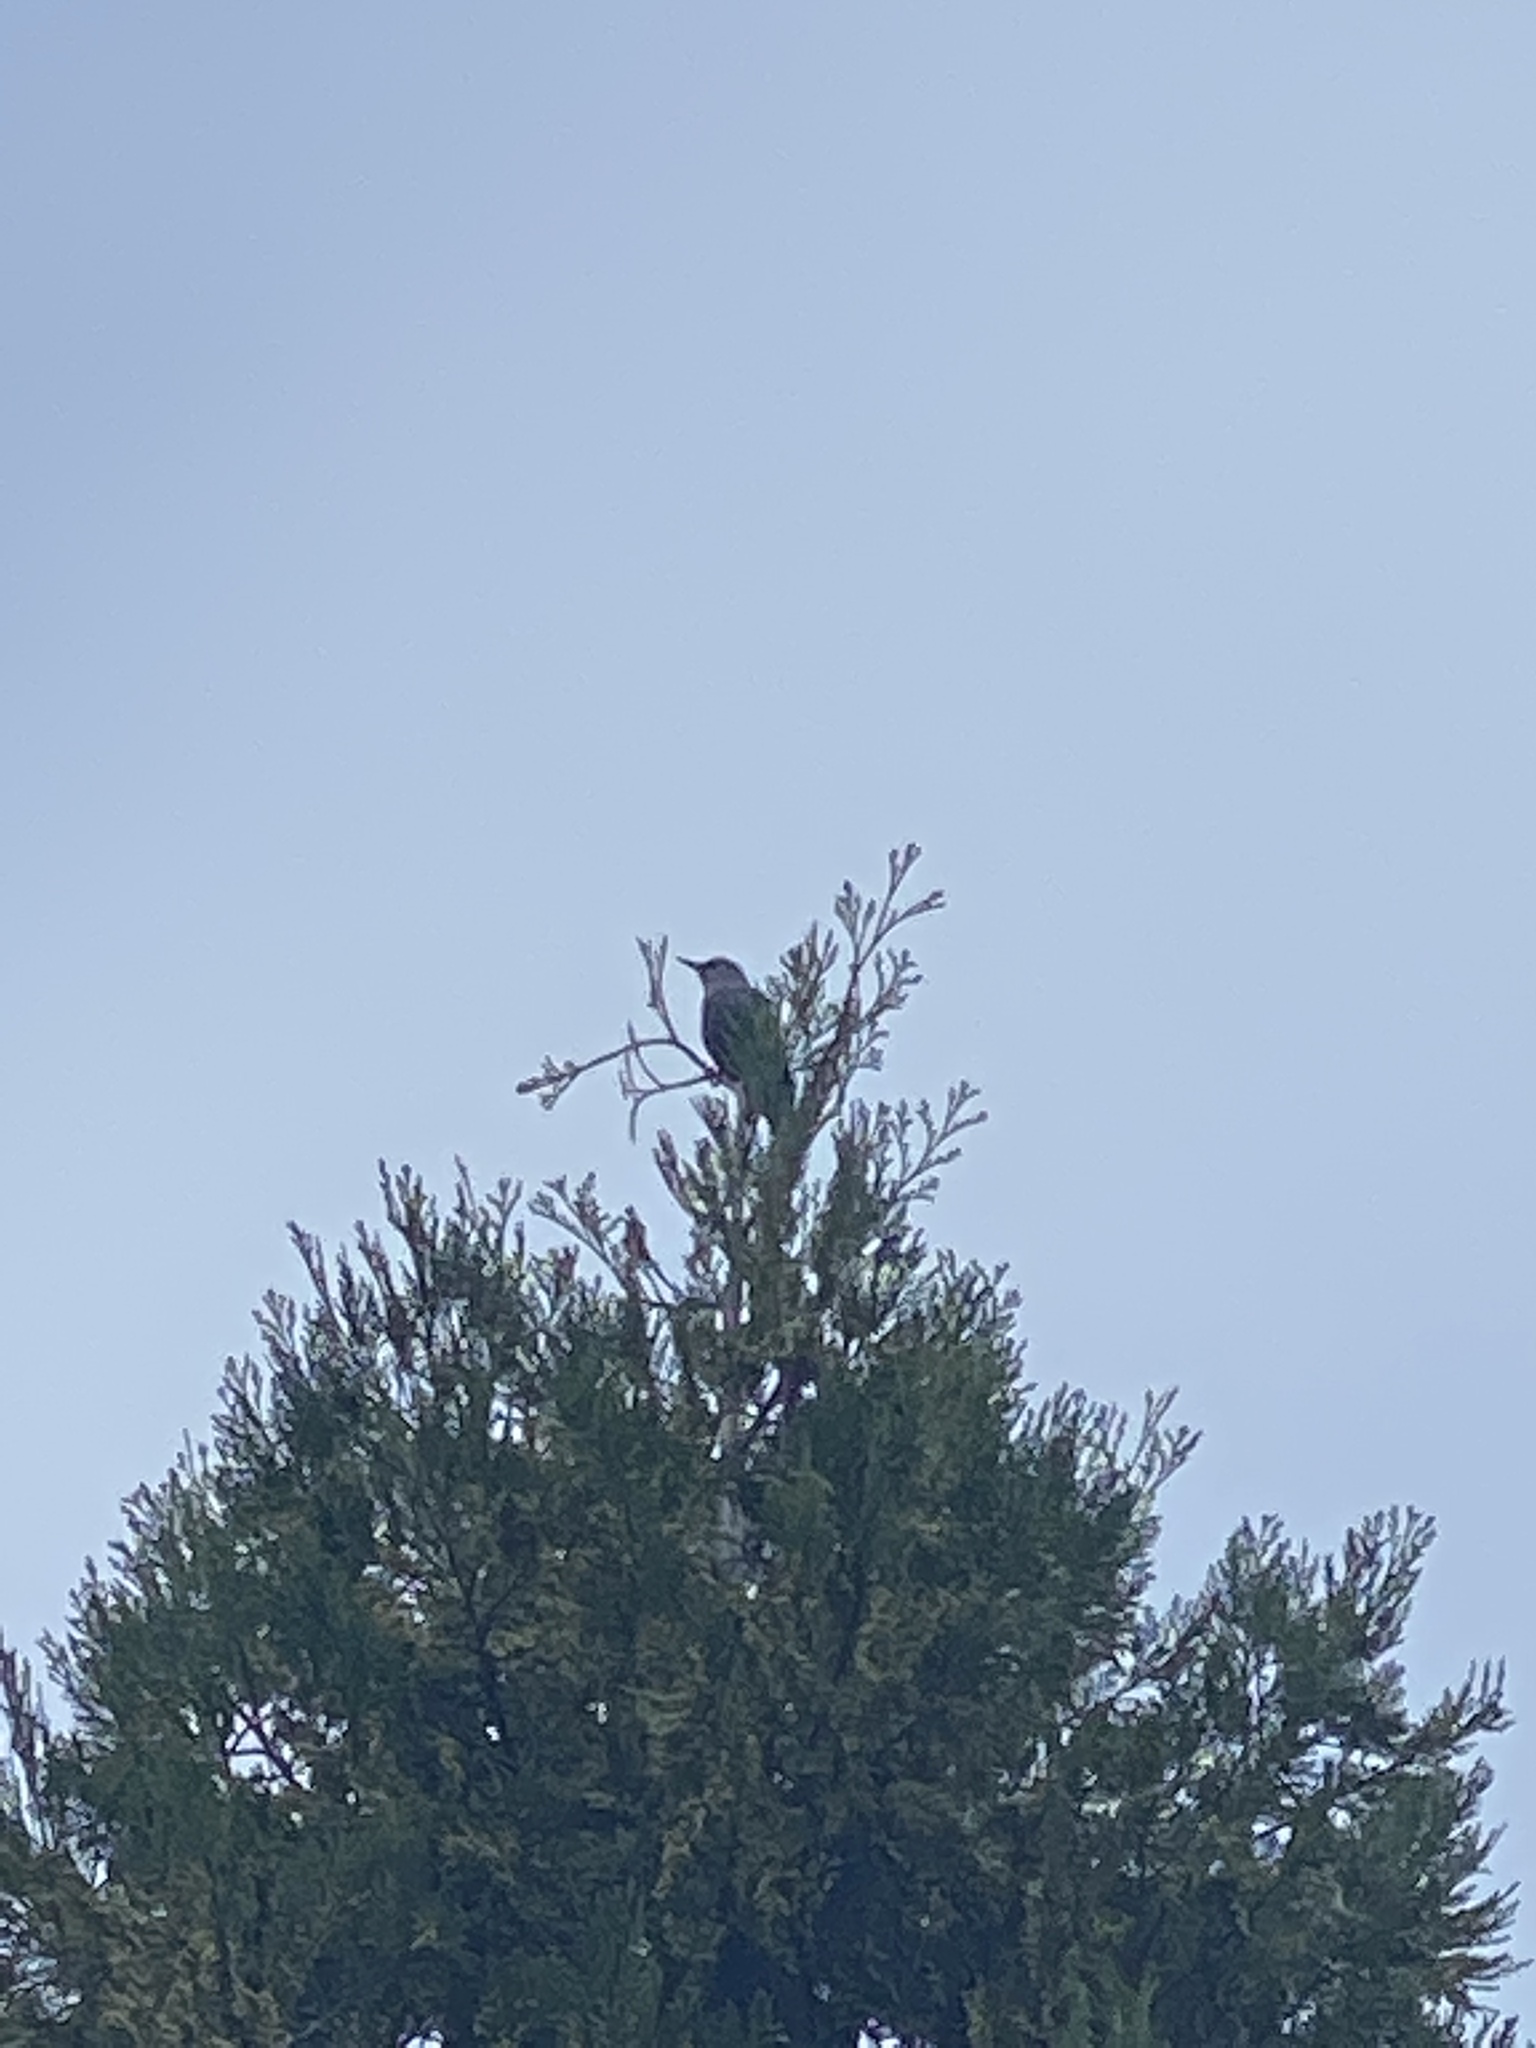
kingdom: Animalia
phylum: Chordata
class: Aves
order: Passeriformes
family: Sturnidae
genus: Sturnus
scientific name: Sturnus vulgaris
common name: Common starling
